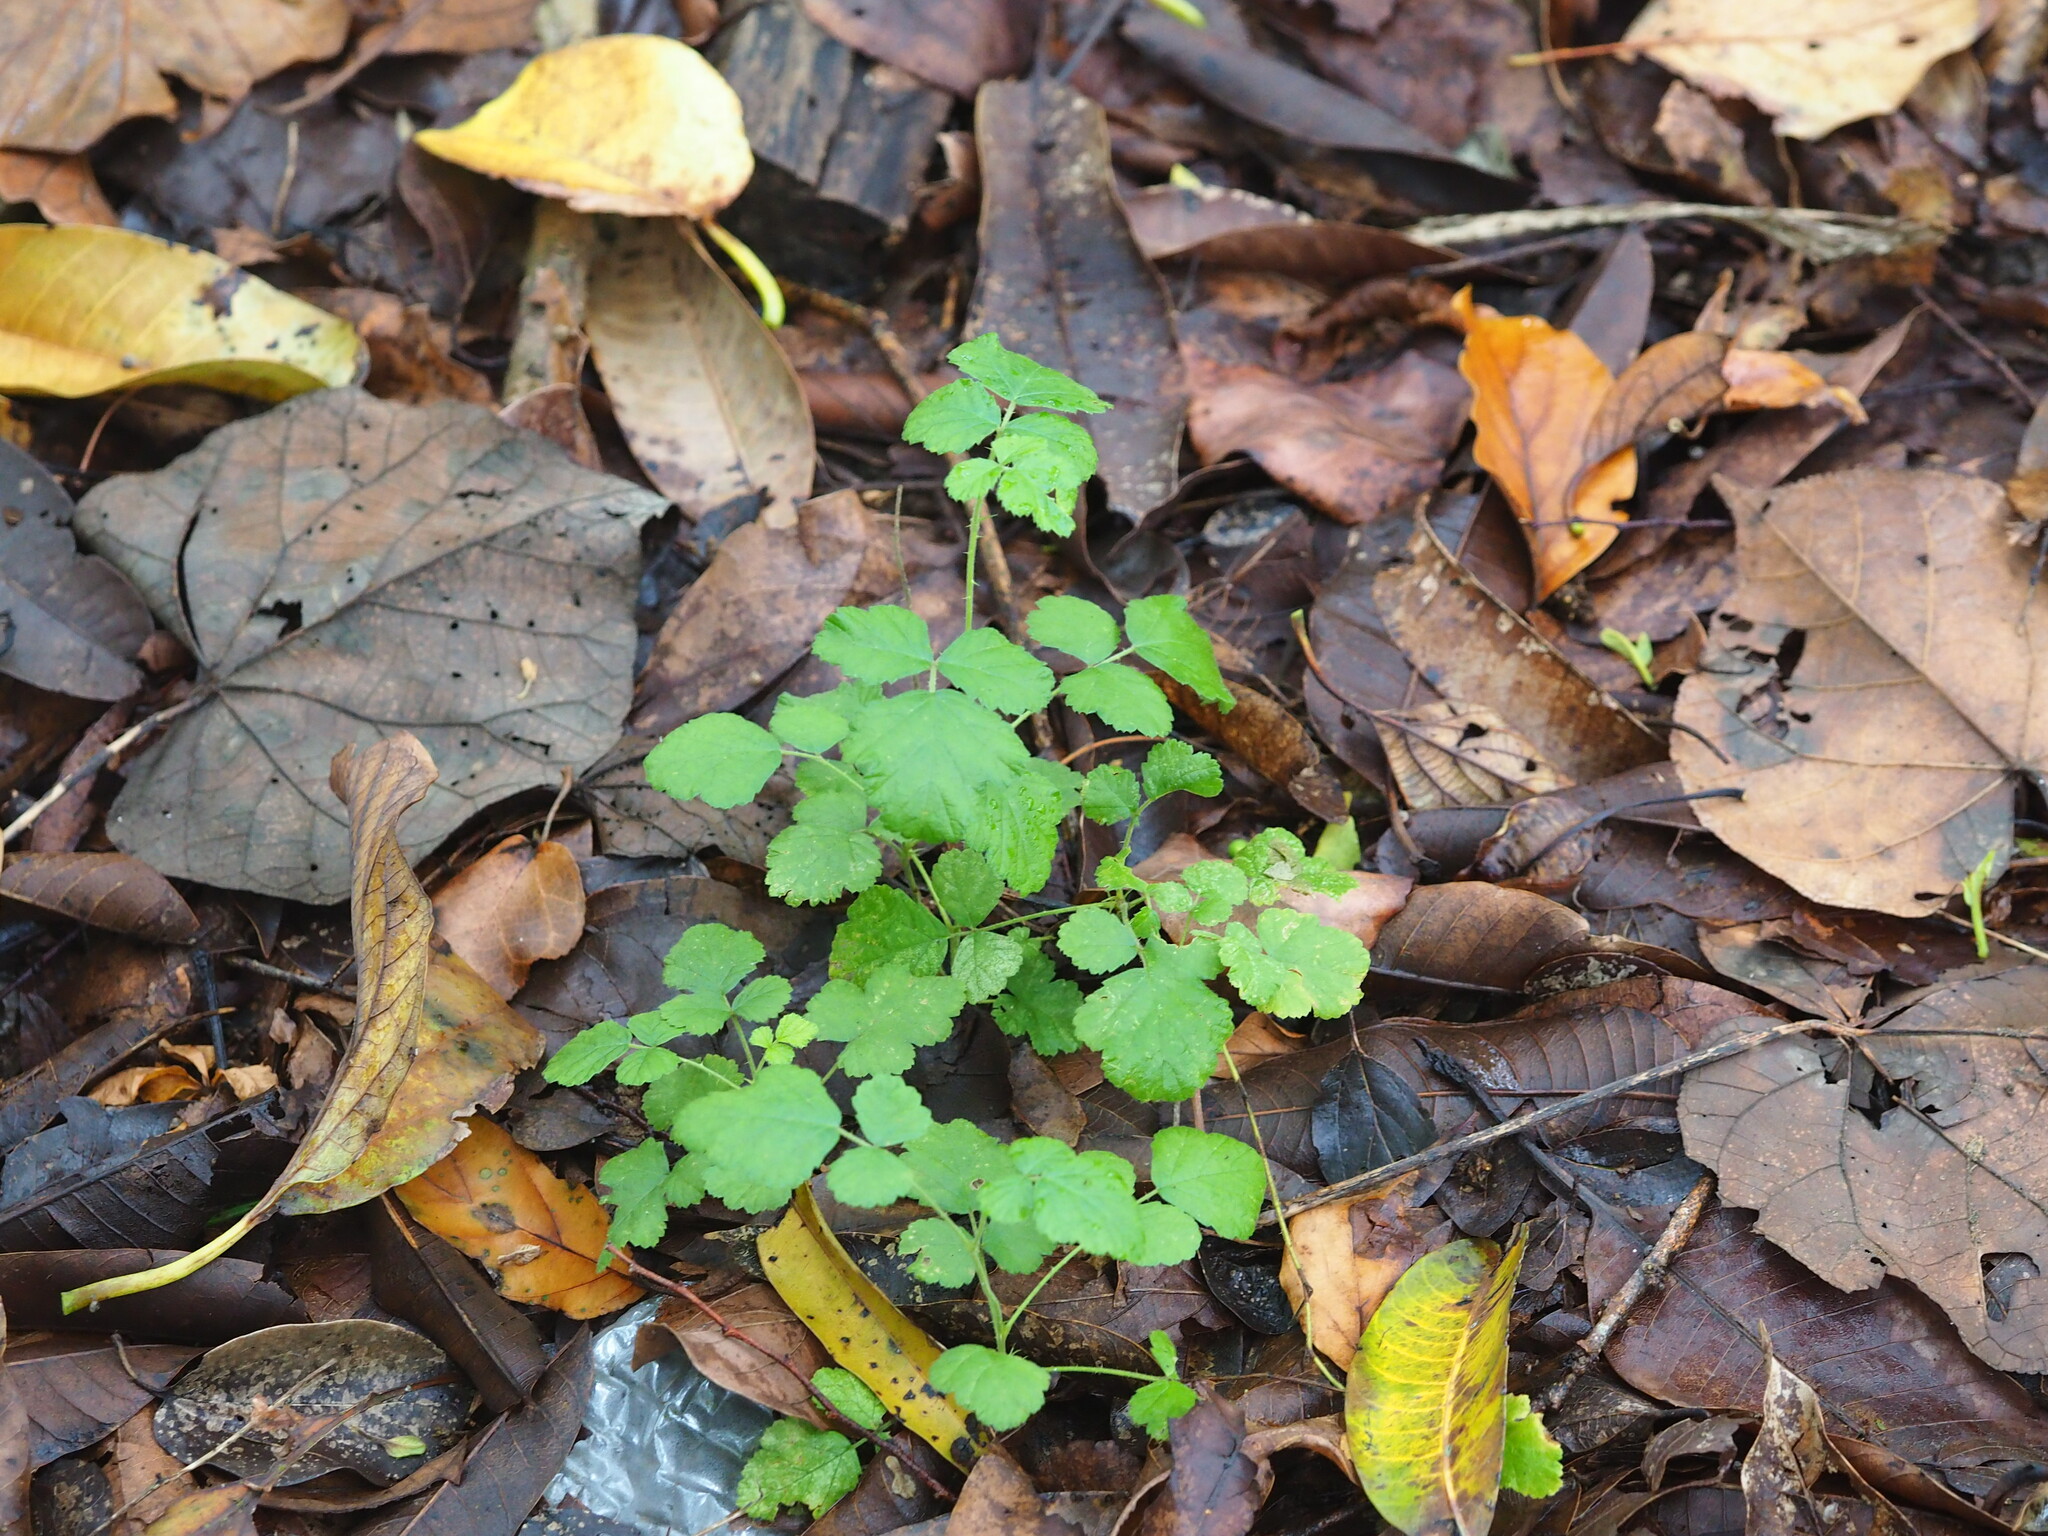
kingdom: Plantae
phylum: Tracheophyta
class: Magnoliopsida
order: Rosales
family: Rosaceae
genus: Rubus
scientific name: Rubus parvifolius
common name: Threeleaf blackberry
